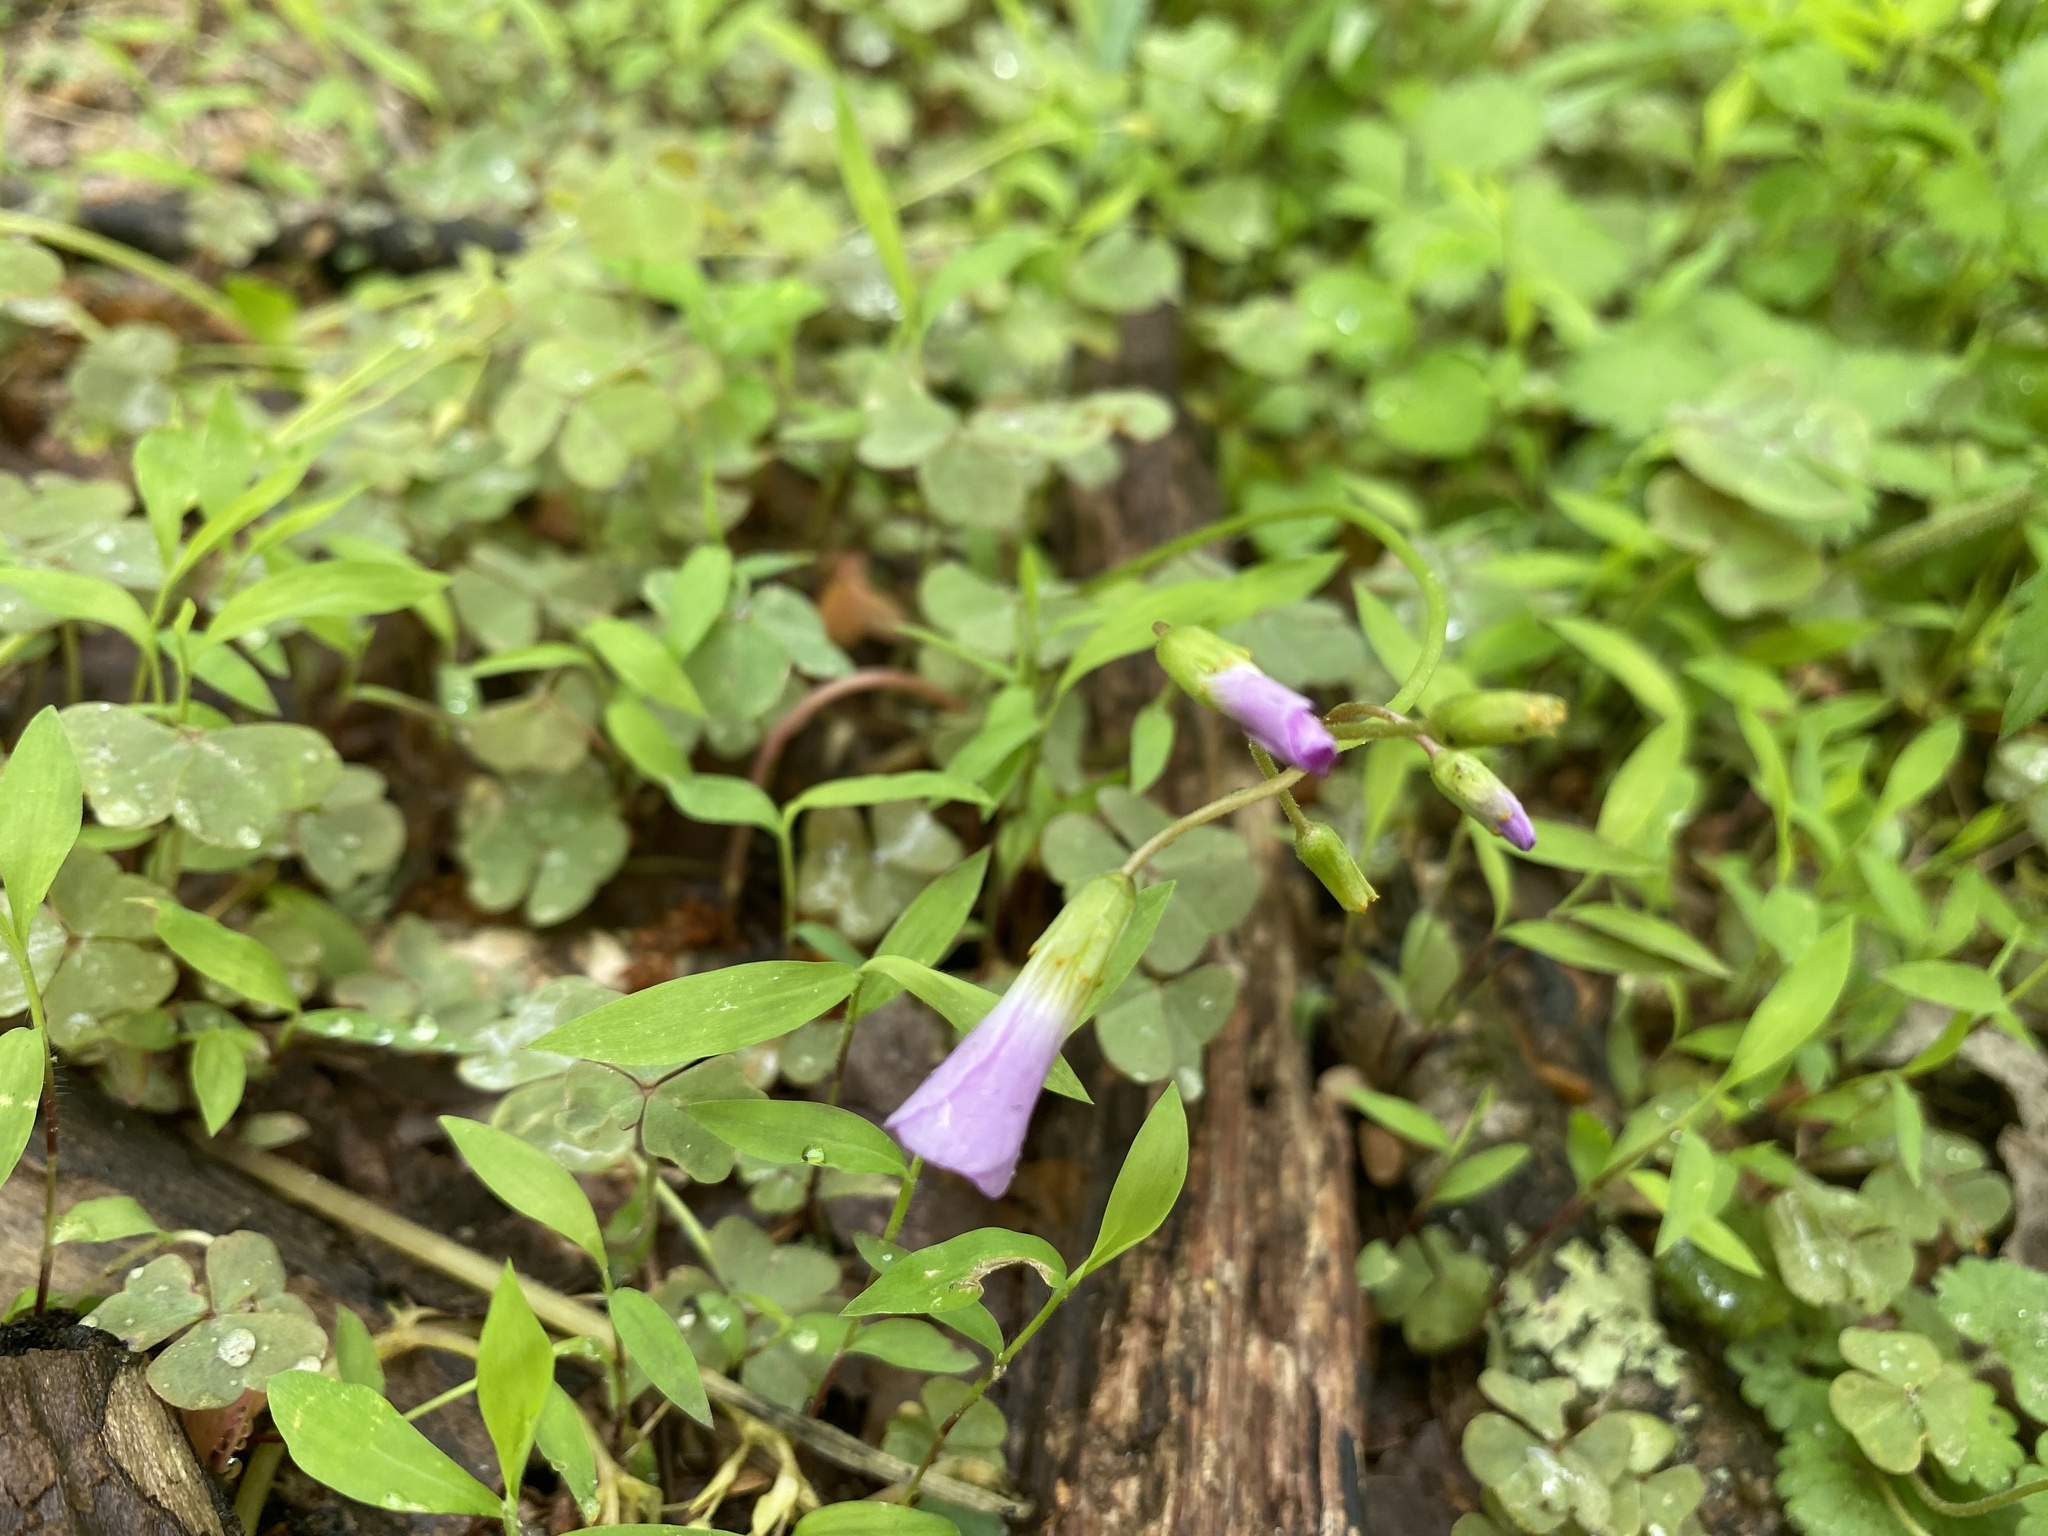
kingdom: Plantae
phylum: Tracheophyta
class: Magnoliopsida
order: Oxalidales
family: Oxalidaceae
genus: Oxalis
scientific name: Oxalis violacea
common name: Violet wood-sorrel
